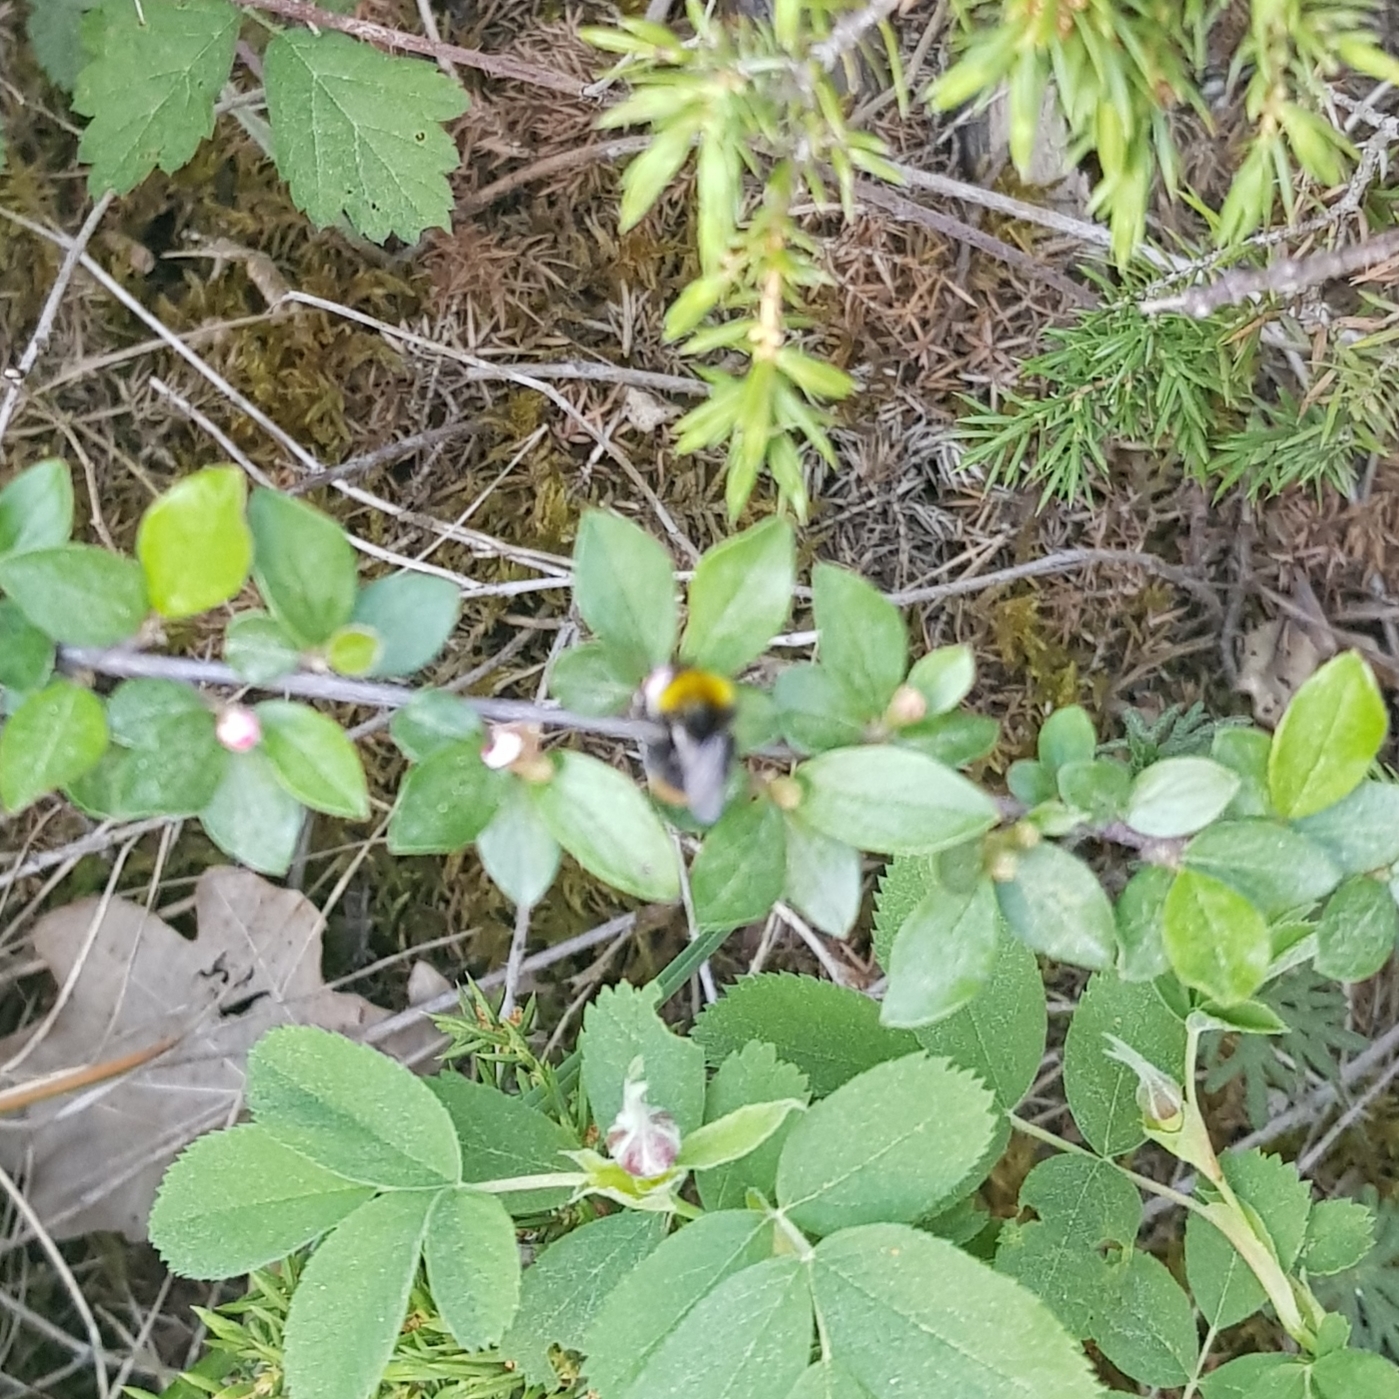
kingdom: Animalia
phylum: Arthropoda
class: Insecta
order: Hymenoptera
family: Apidae
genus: Bombus
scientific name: Bombus pratorum
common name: Early humble-bee
